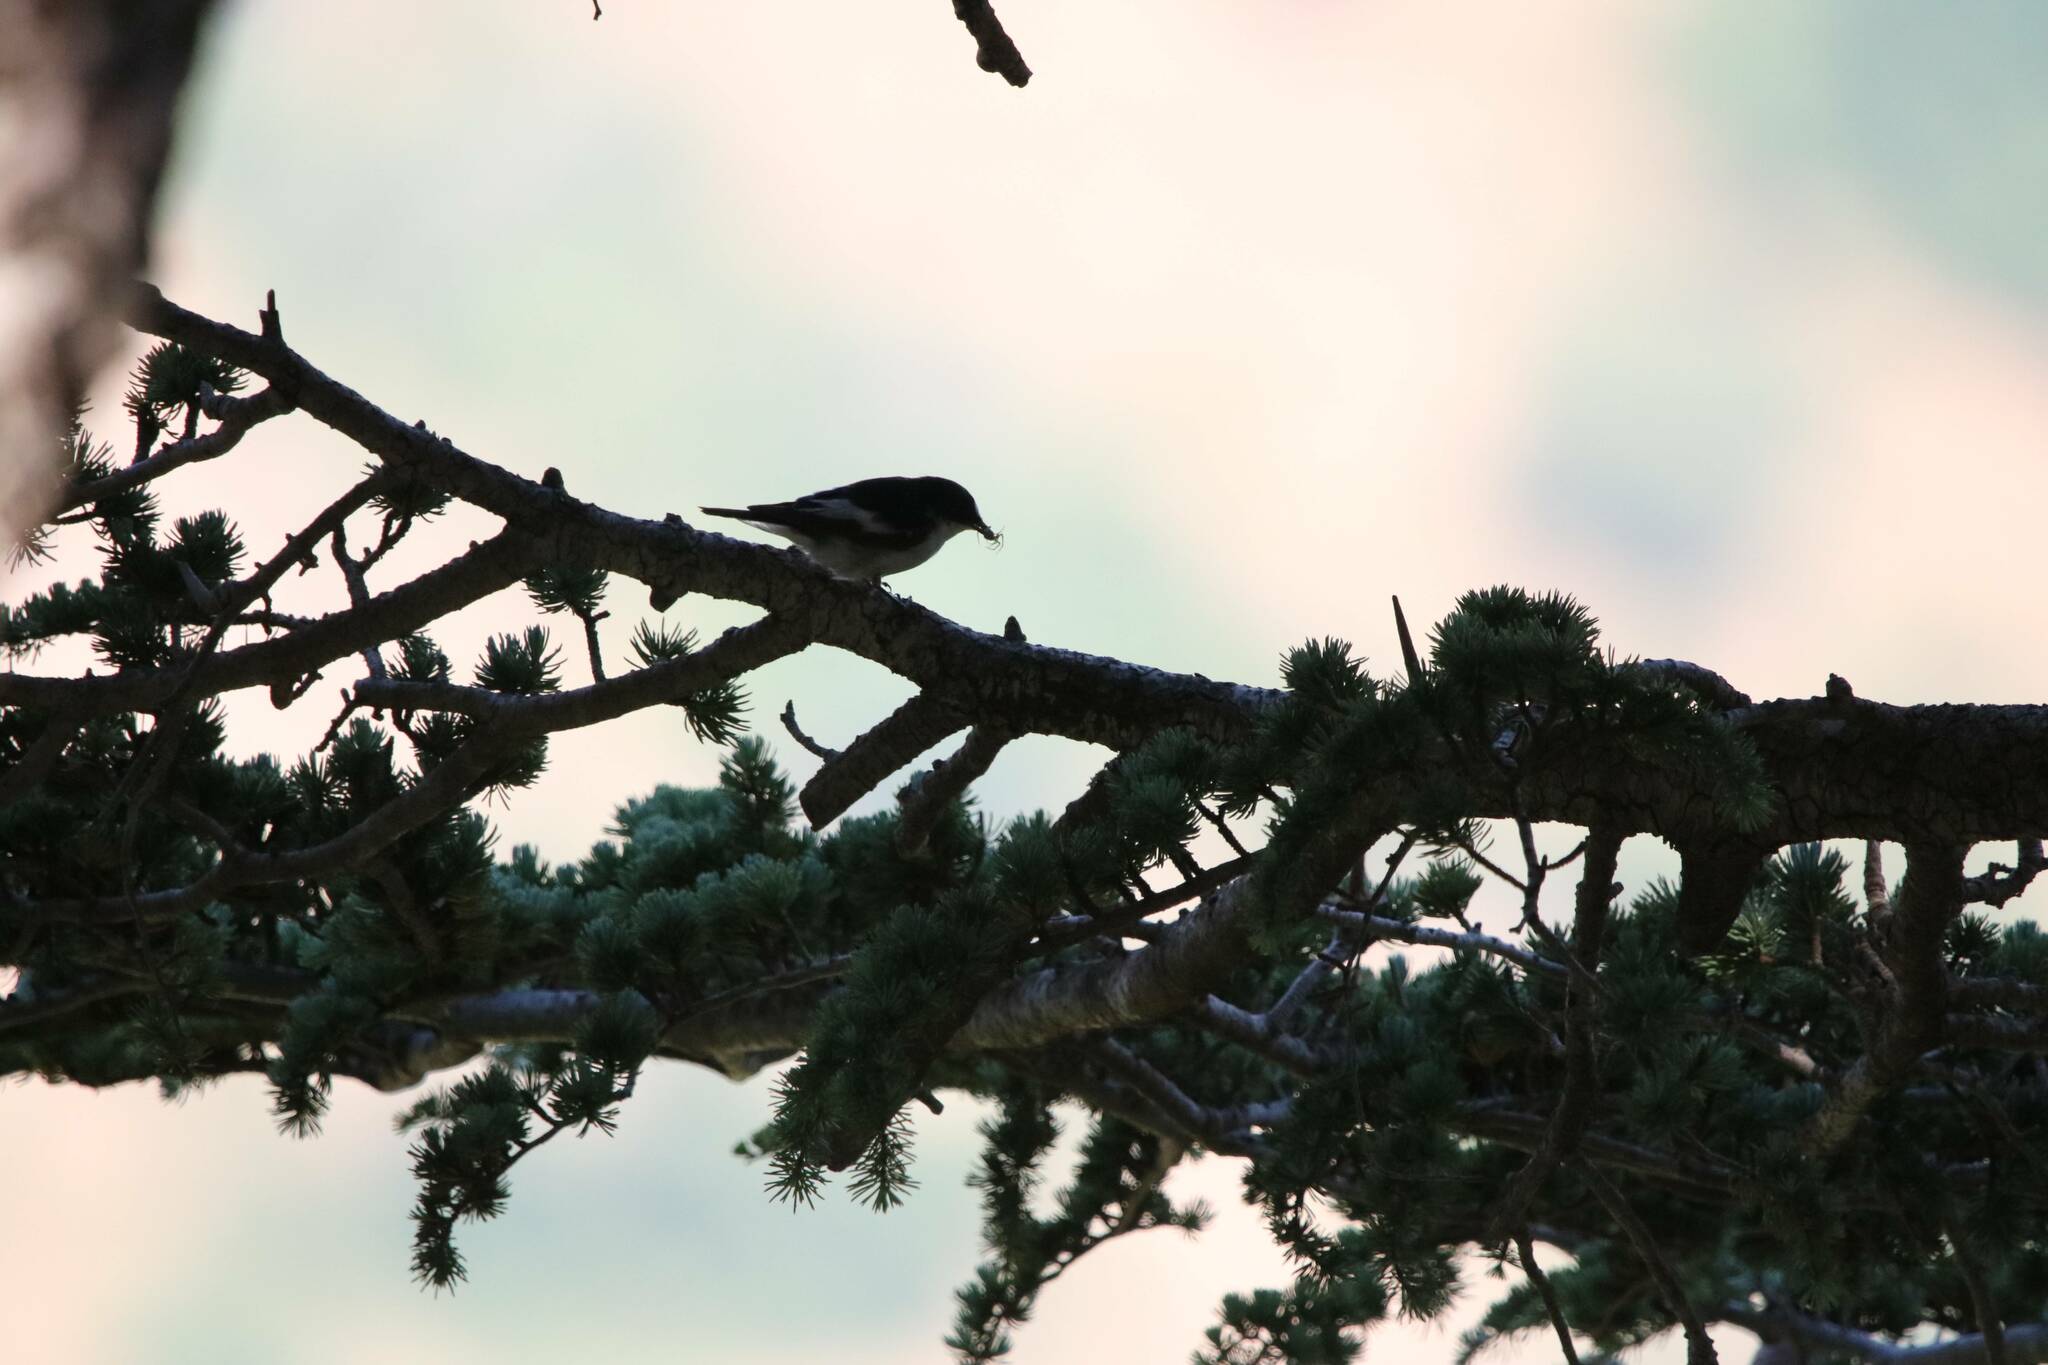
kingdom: Animalia
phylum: Chordata
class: Aves
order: Passeriformes
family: Muscicapidae
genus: Ficedula
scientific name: Ficedula speculigera
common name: Atlas pied flycatcher
